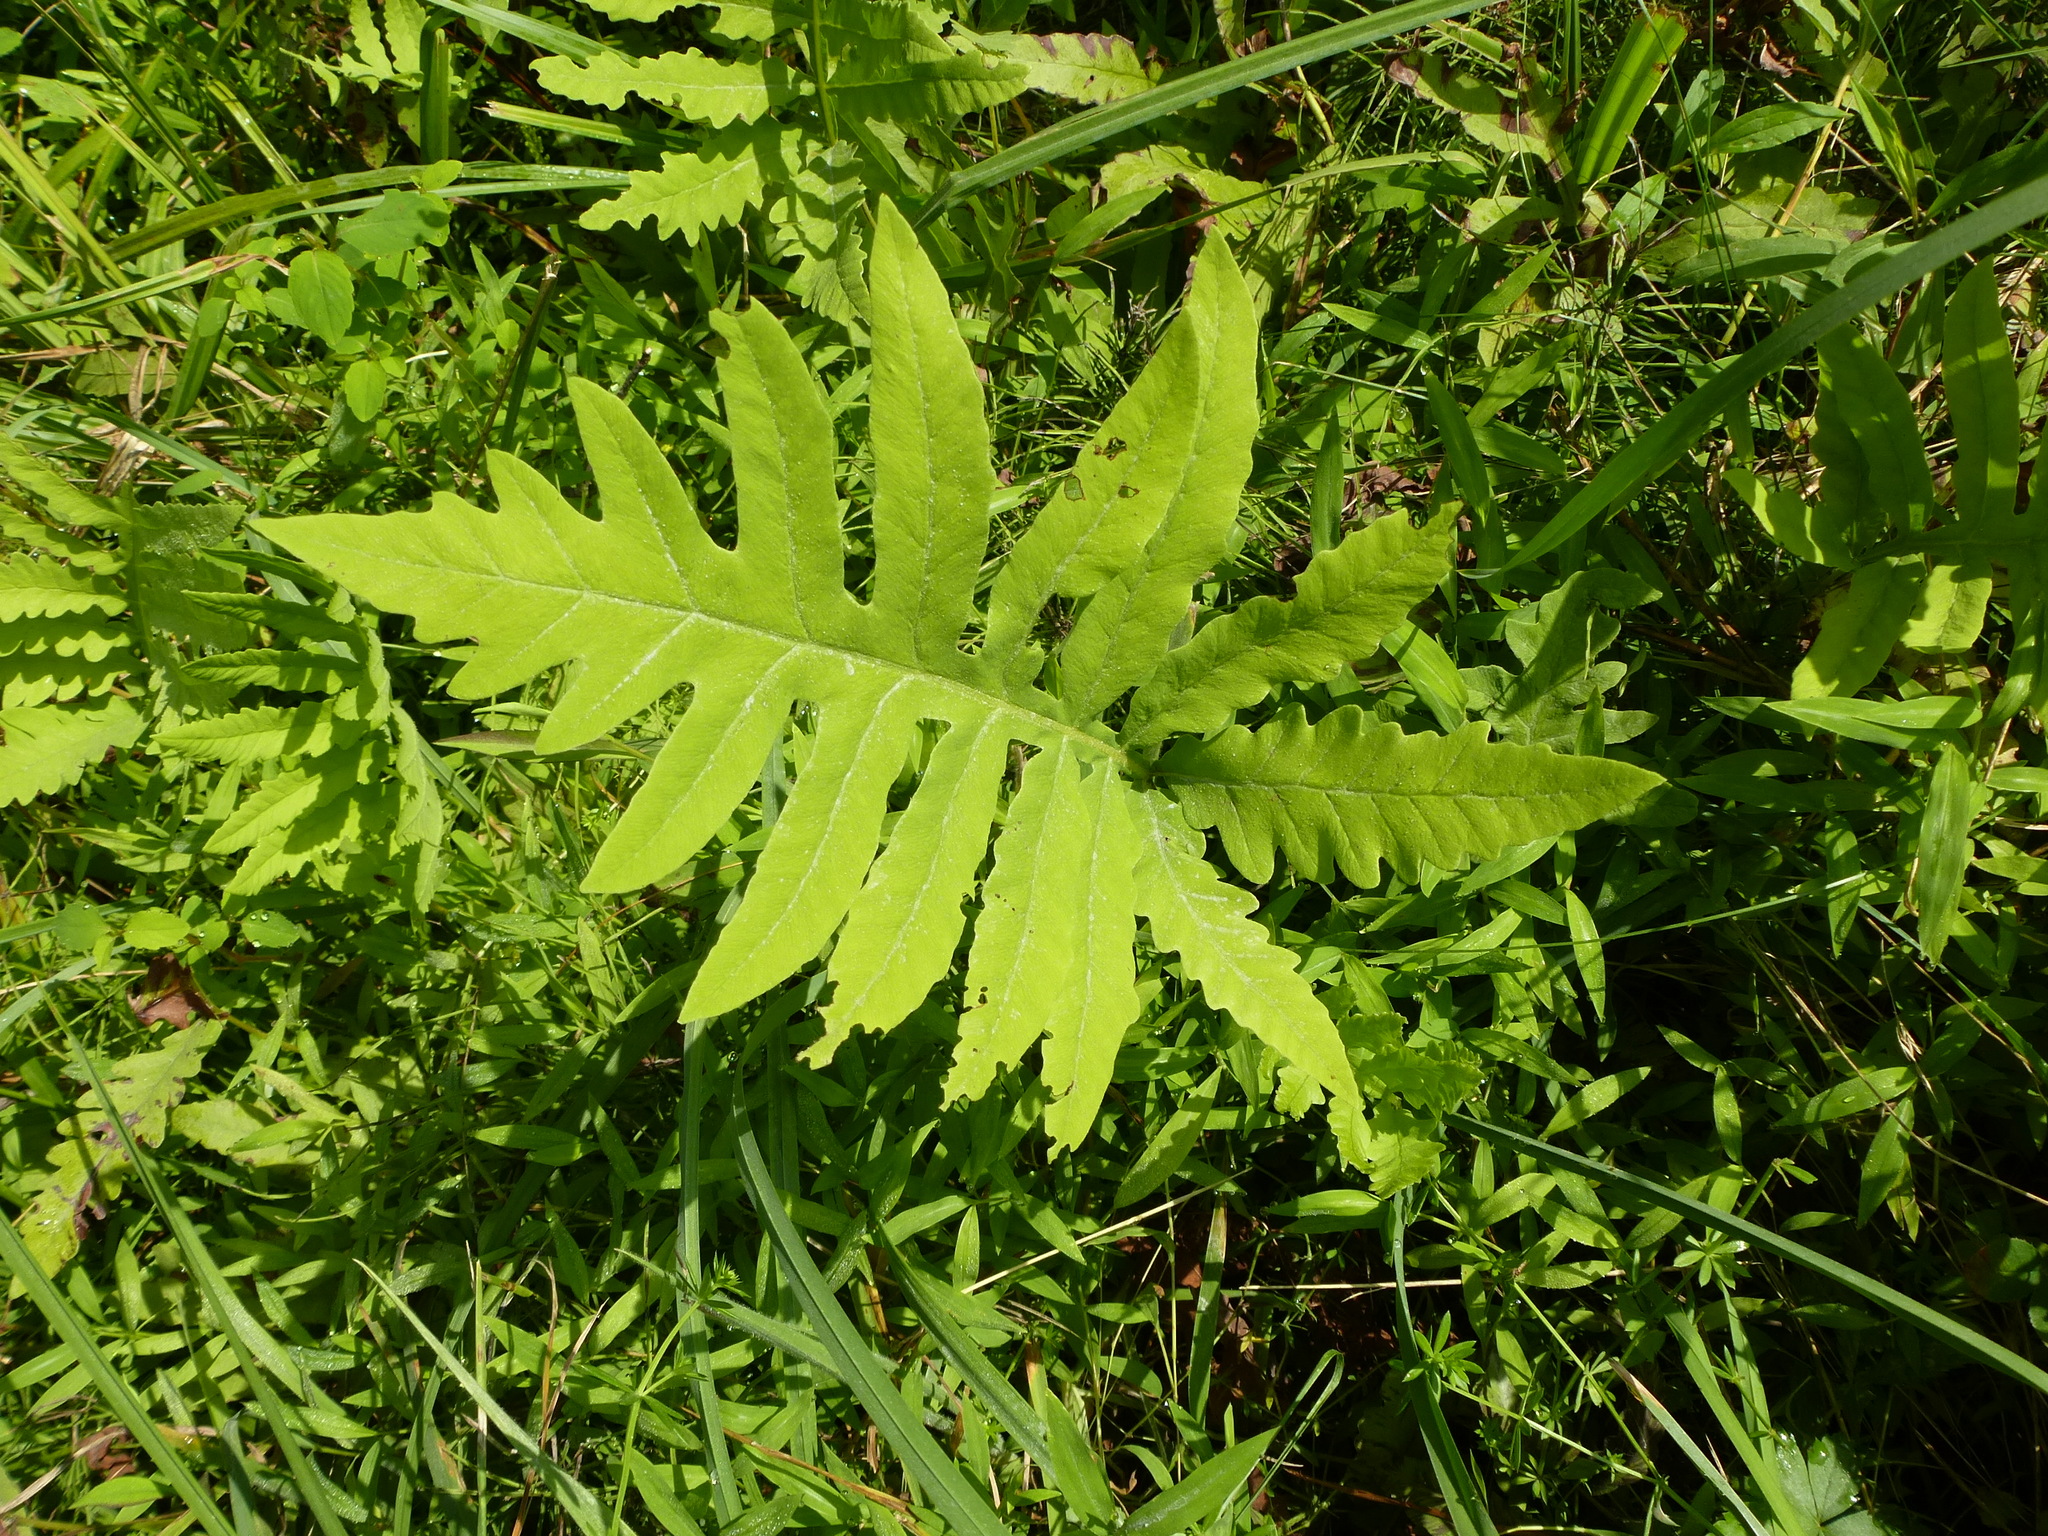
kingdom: Plantae
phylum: Tracheophyta
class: Polypodiopsida
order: Polypodiales
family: Onocleaceae
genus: Onoclea
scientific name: Onoclea sensibilis
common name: Sensitive fern
